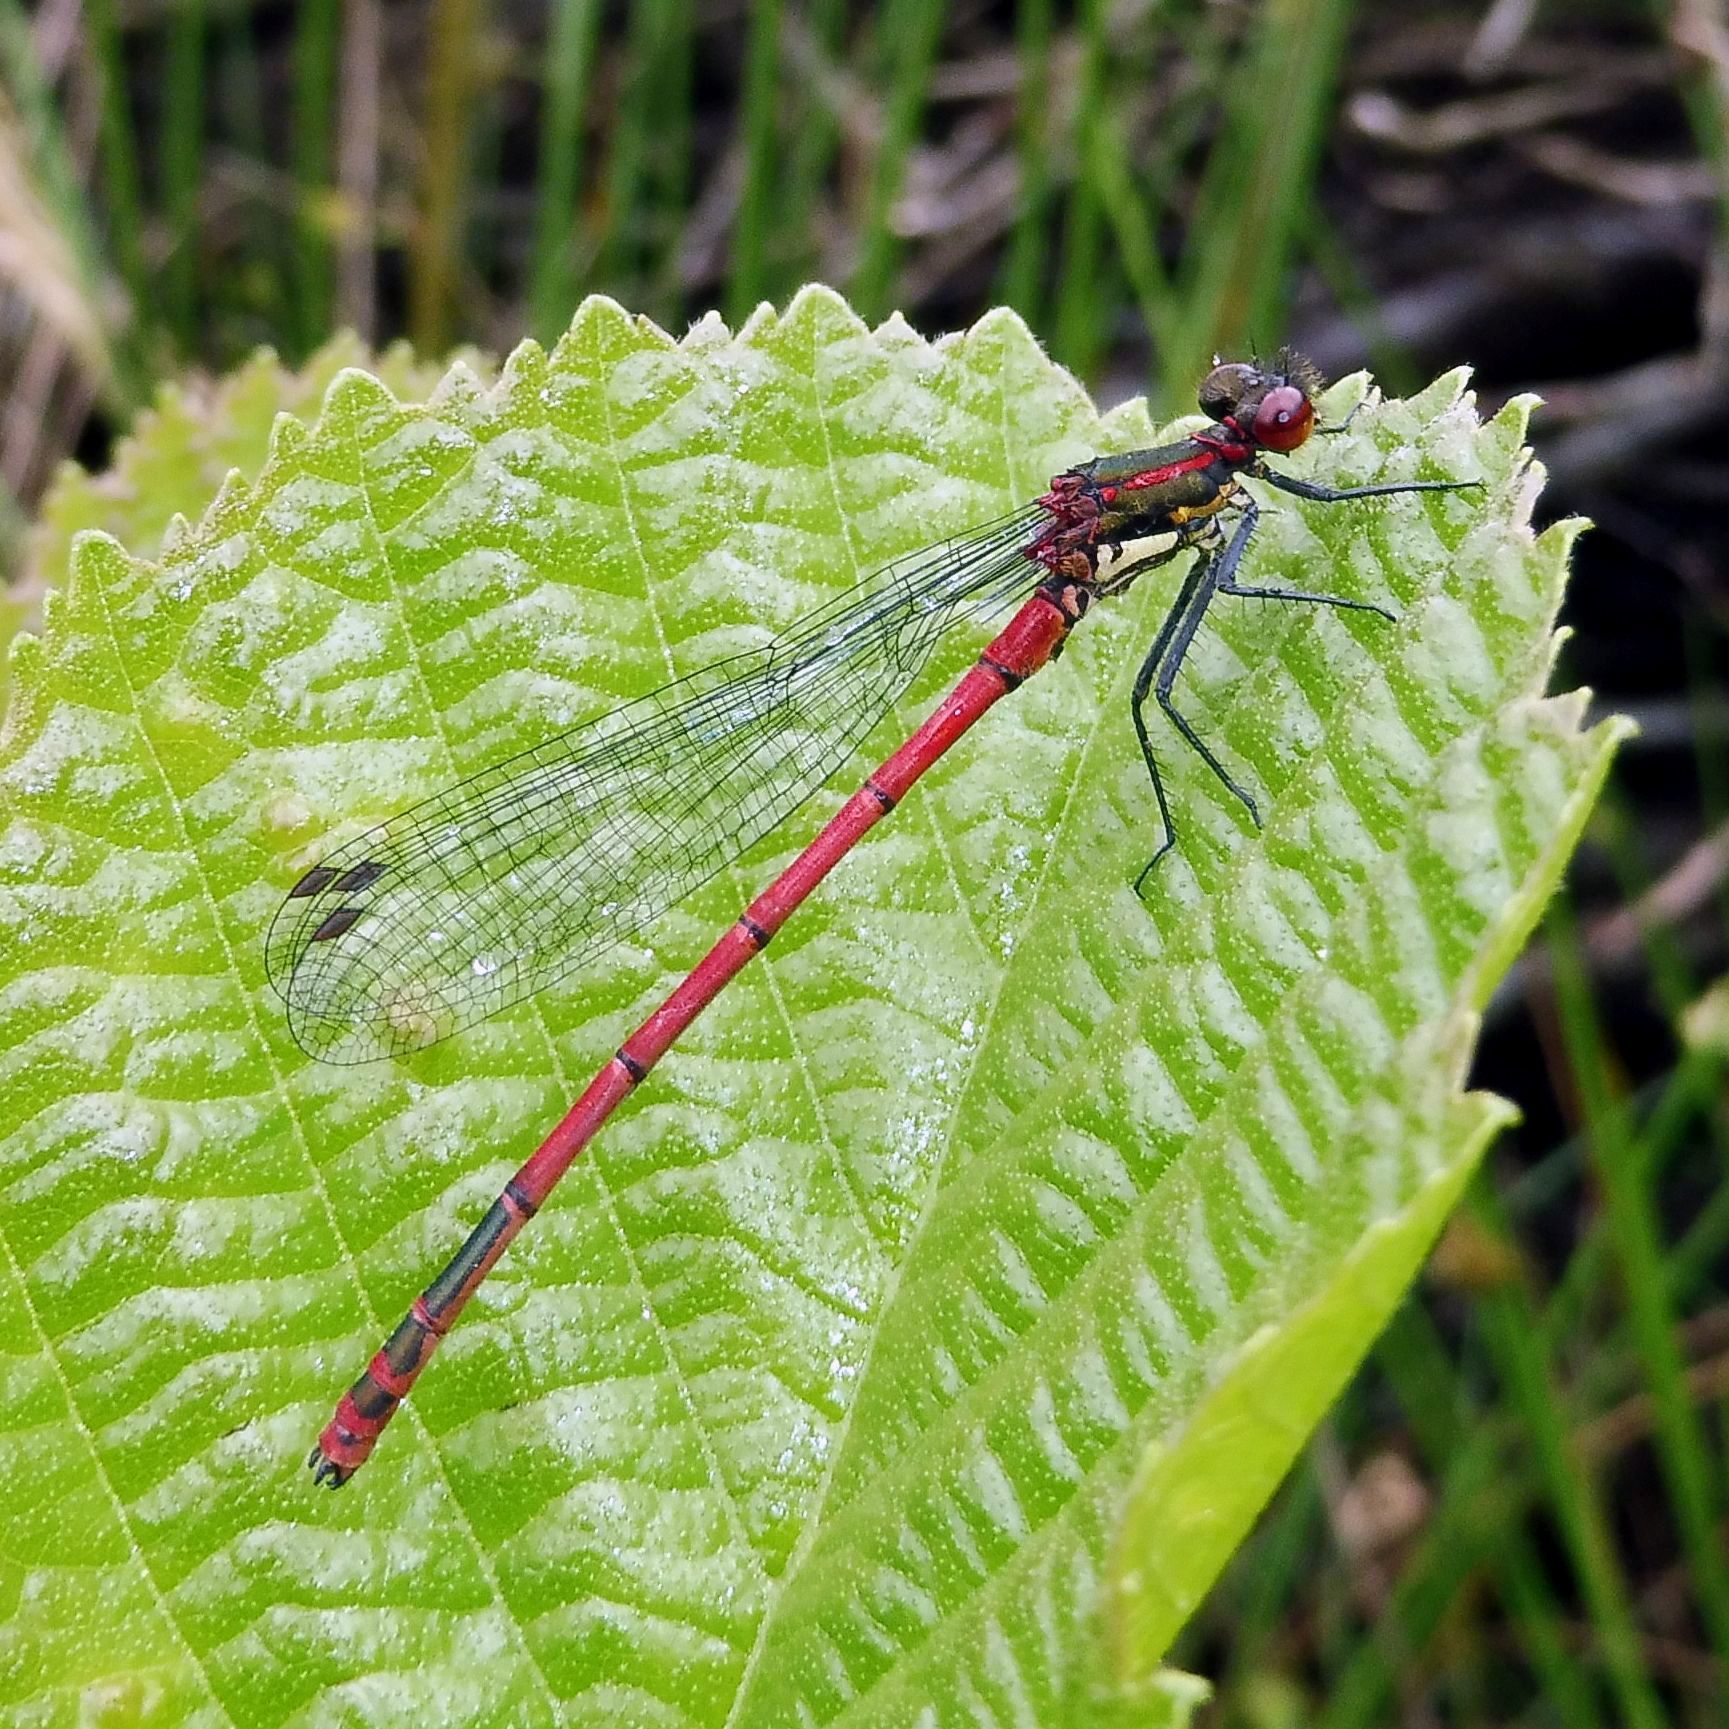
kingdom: Animalia
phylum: Arthropoda
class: Insecta
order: Odonata
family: Coenagrionidae
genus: Pyrrhosoma
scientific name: Pyrrhosoma nymphula
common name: Large red damsel
